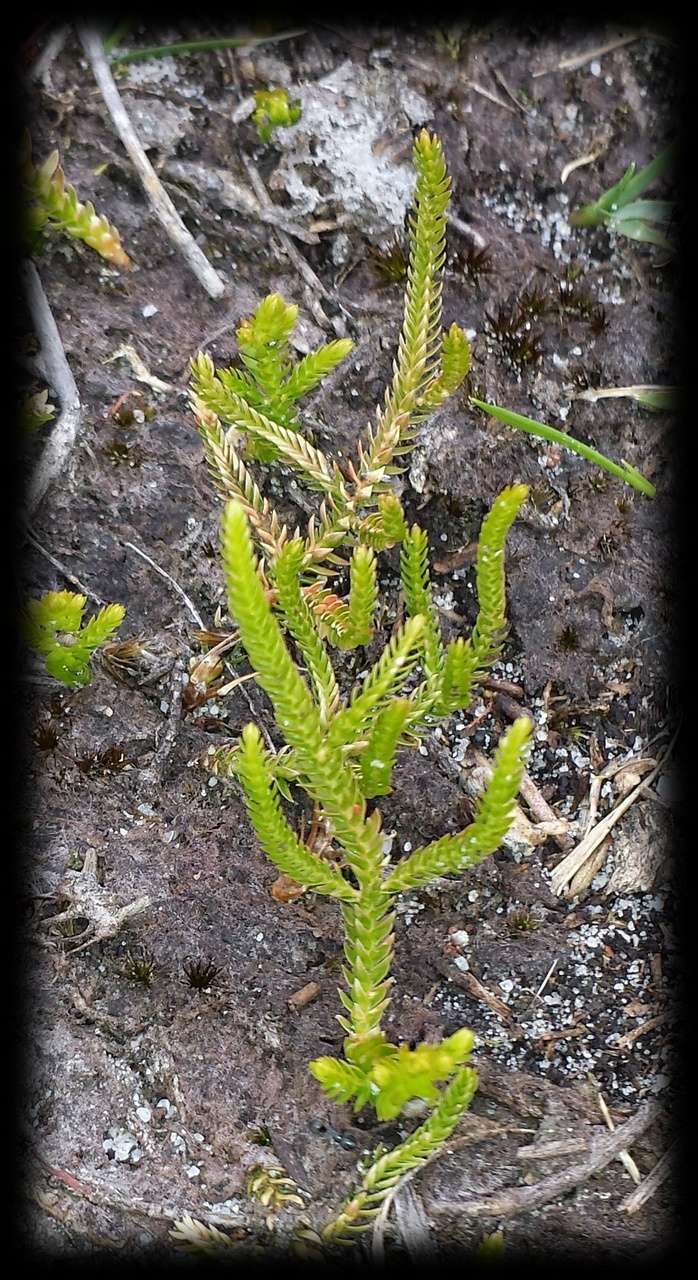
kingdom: Plantae
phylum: Tracheophyta
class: Lycopodiopsida
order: Selaginellales
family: Selaginellaceae
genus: Selaginella
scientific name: Selaginella uliginosa
